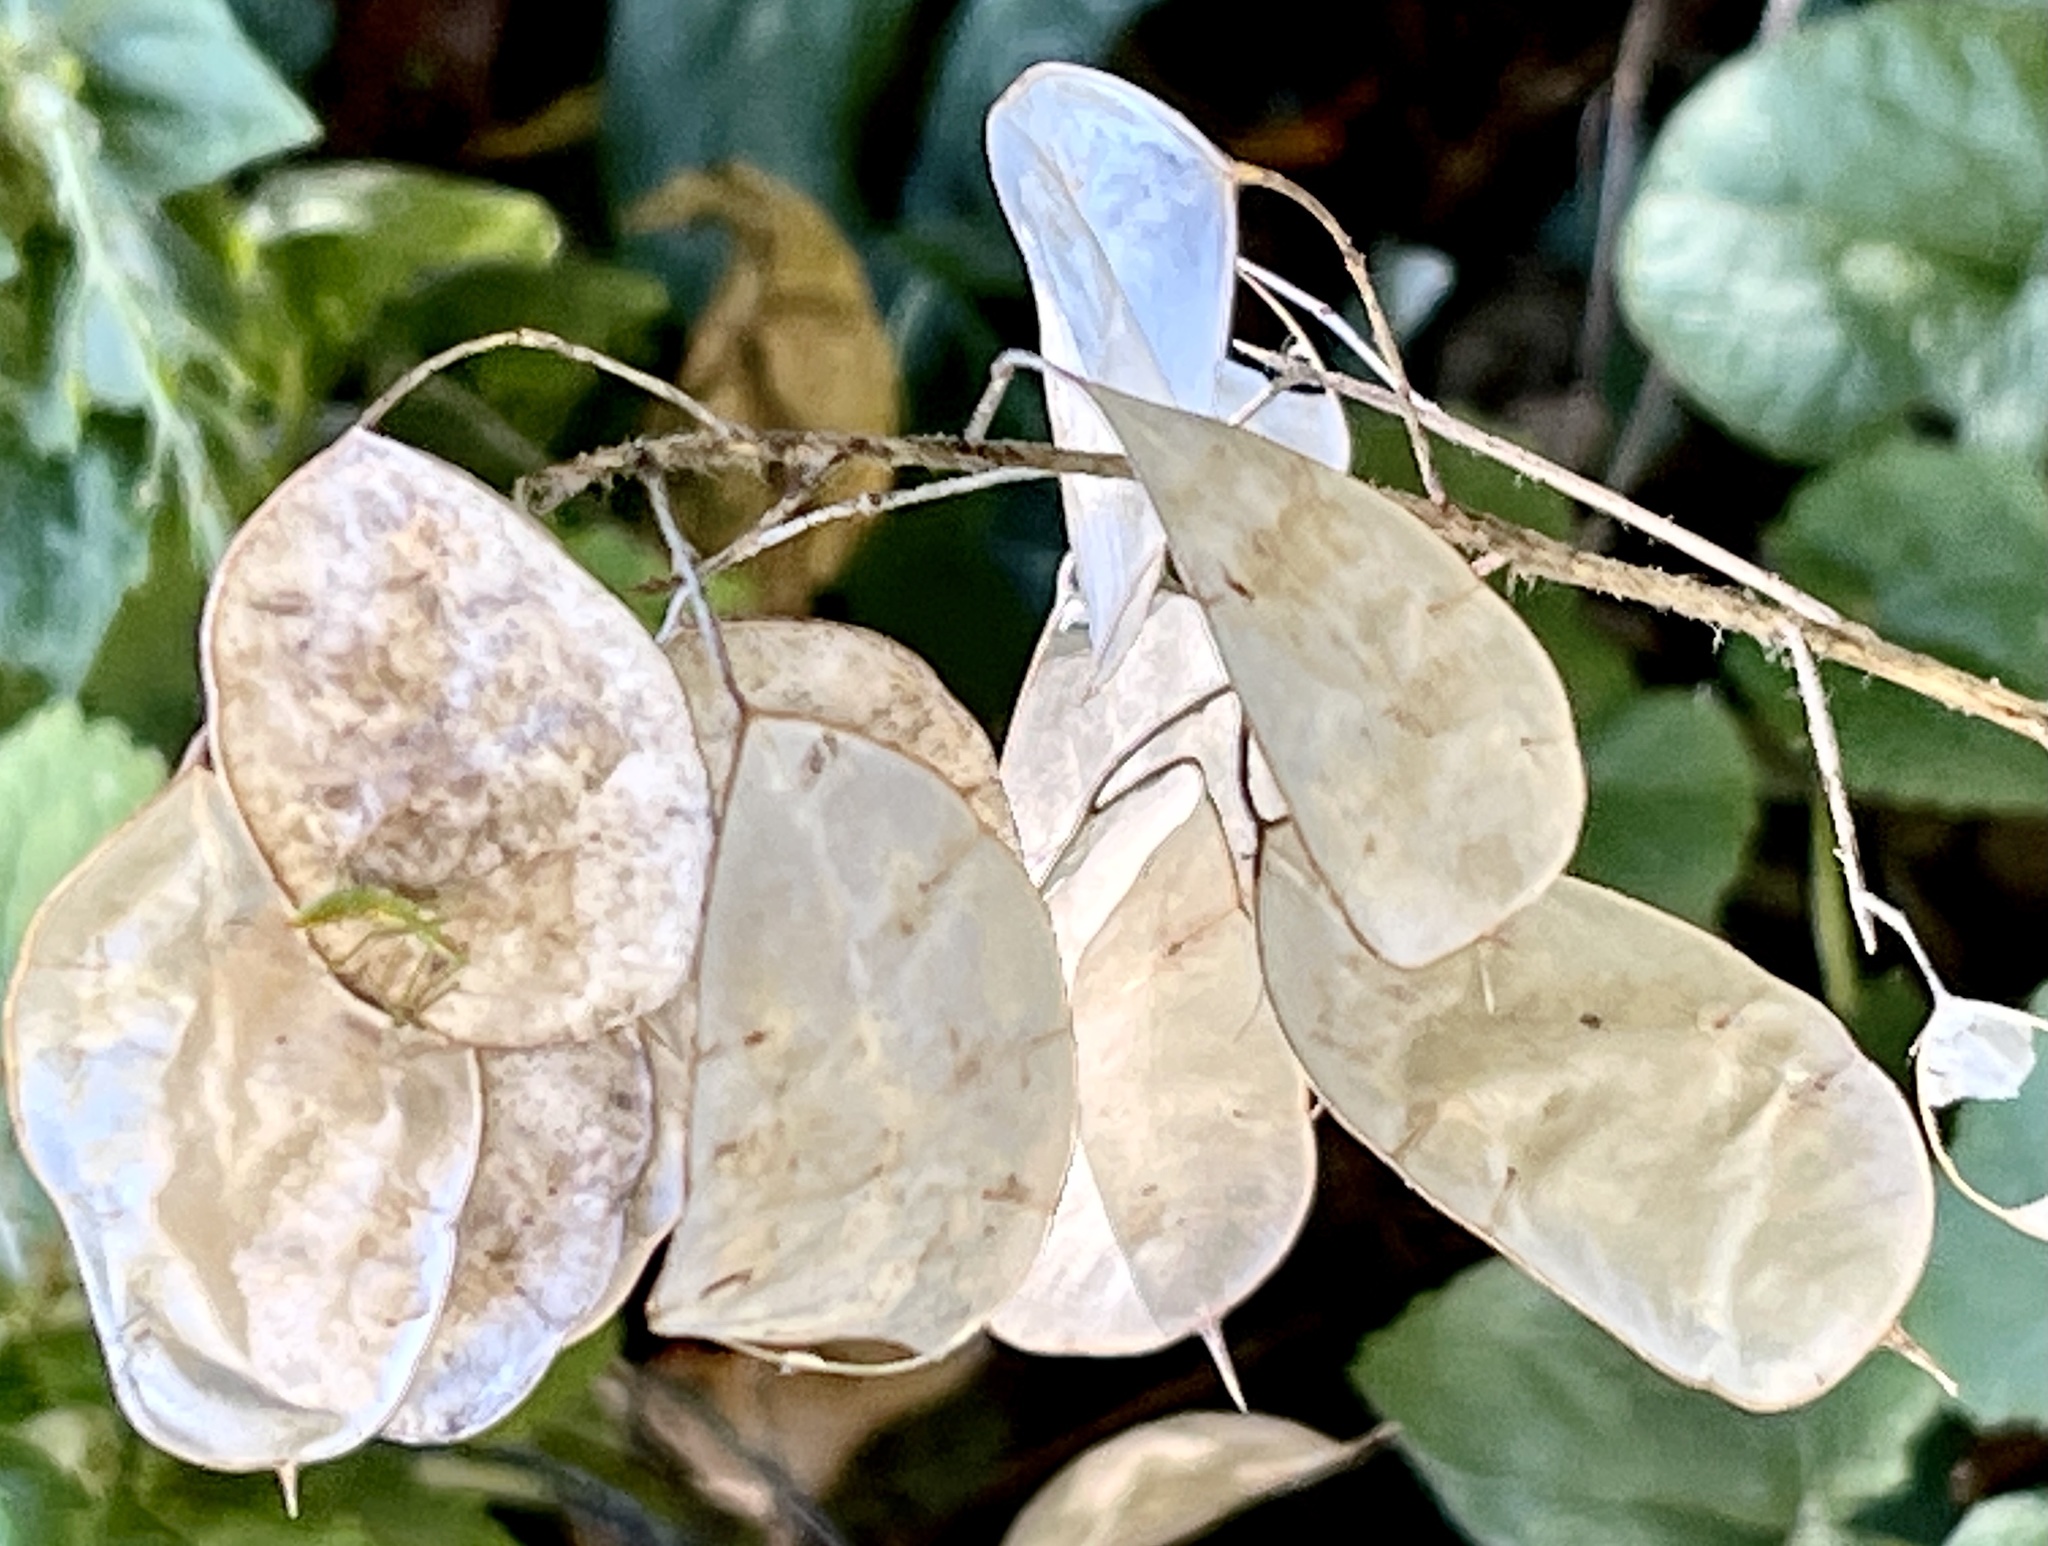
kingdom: Plantae
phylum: Tracheophyta
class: Magnoliopsida
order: Brassicales
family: Brassicaceae
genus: Lunaria
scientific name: Lunaria annua
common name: Honesty
